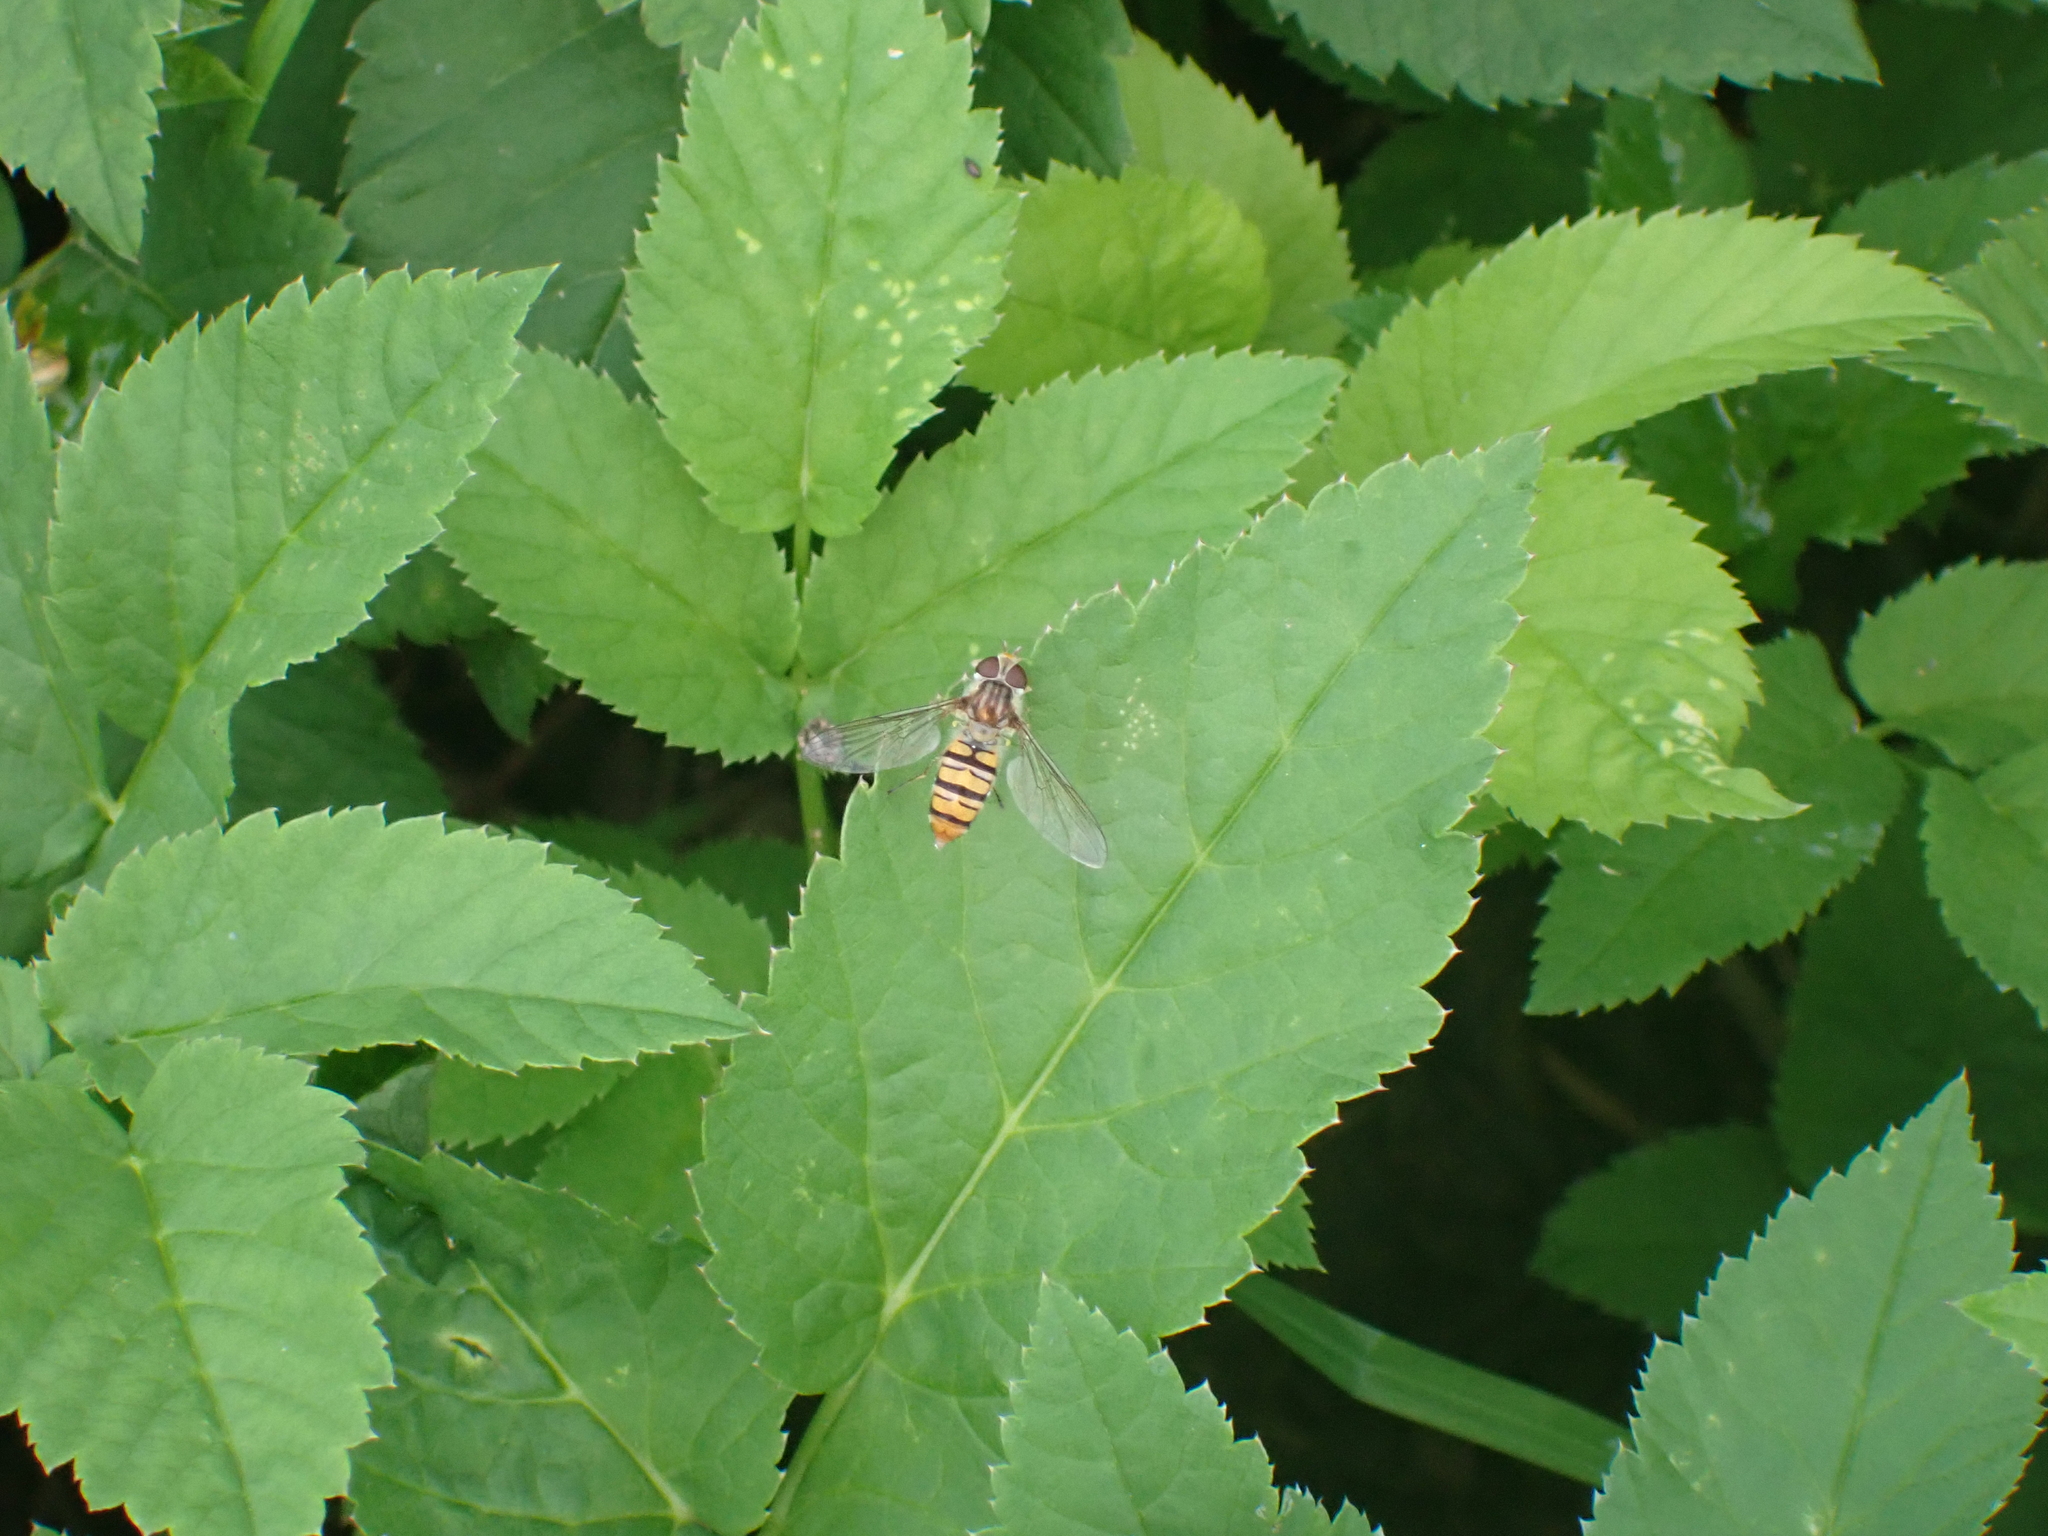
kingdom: Animalia
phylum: Arthropoda
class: Insecta
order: Diptera
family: Syrphidae
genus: Episyrphus
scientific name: Episyrphus balteatus
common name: Marmalade hoverfly
